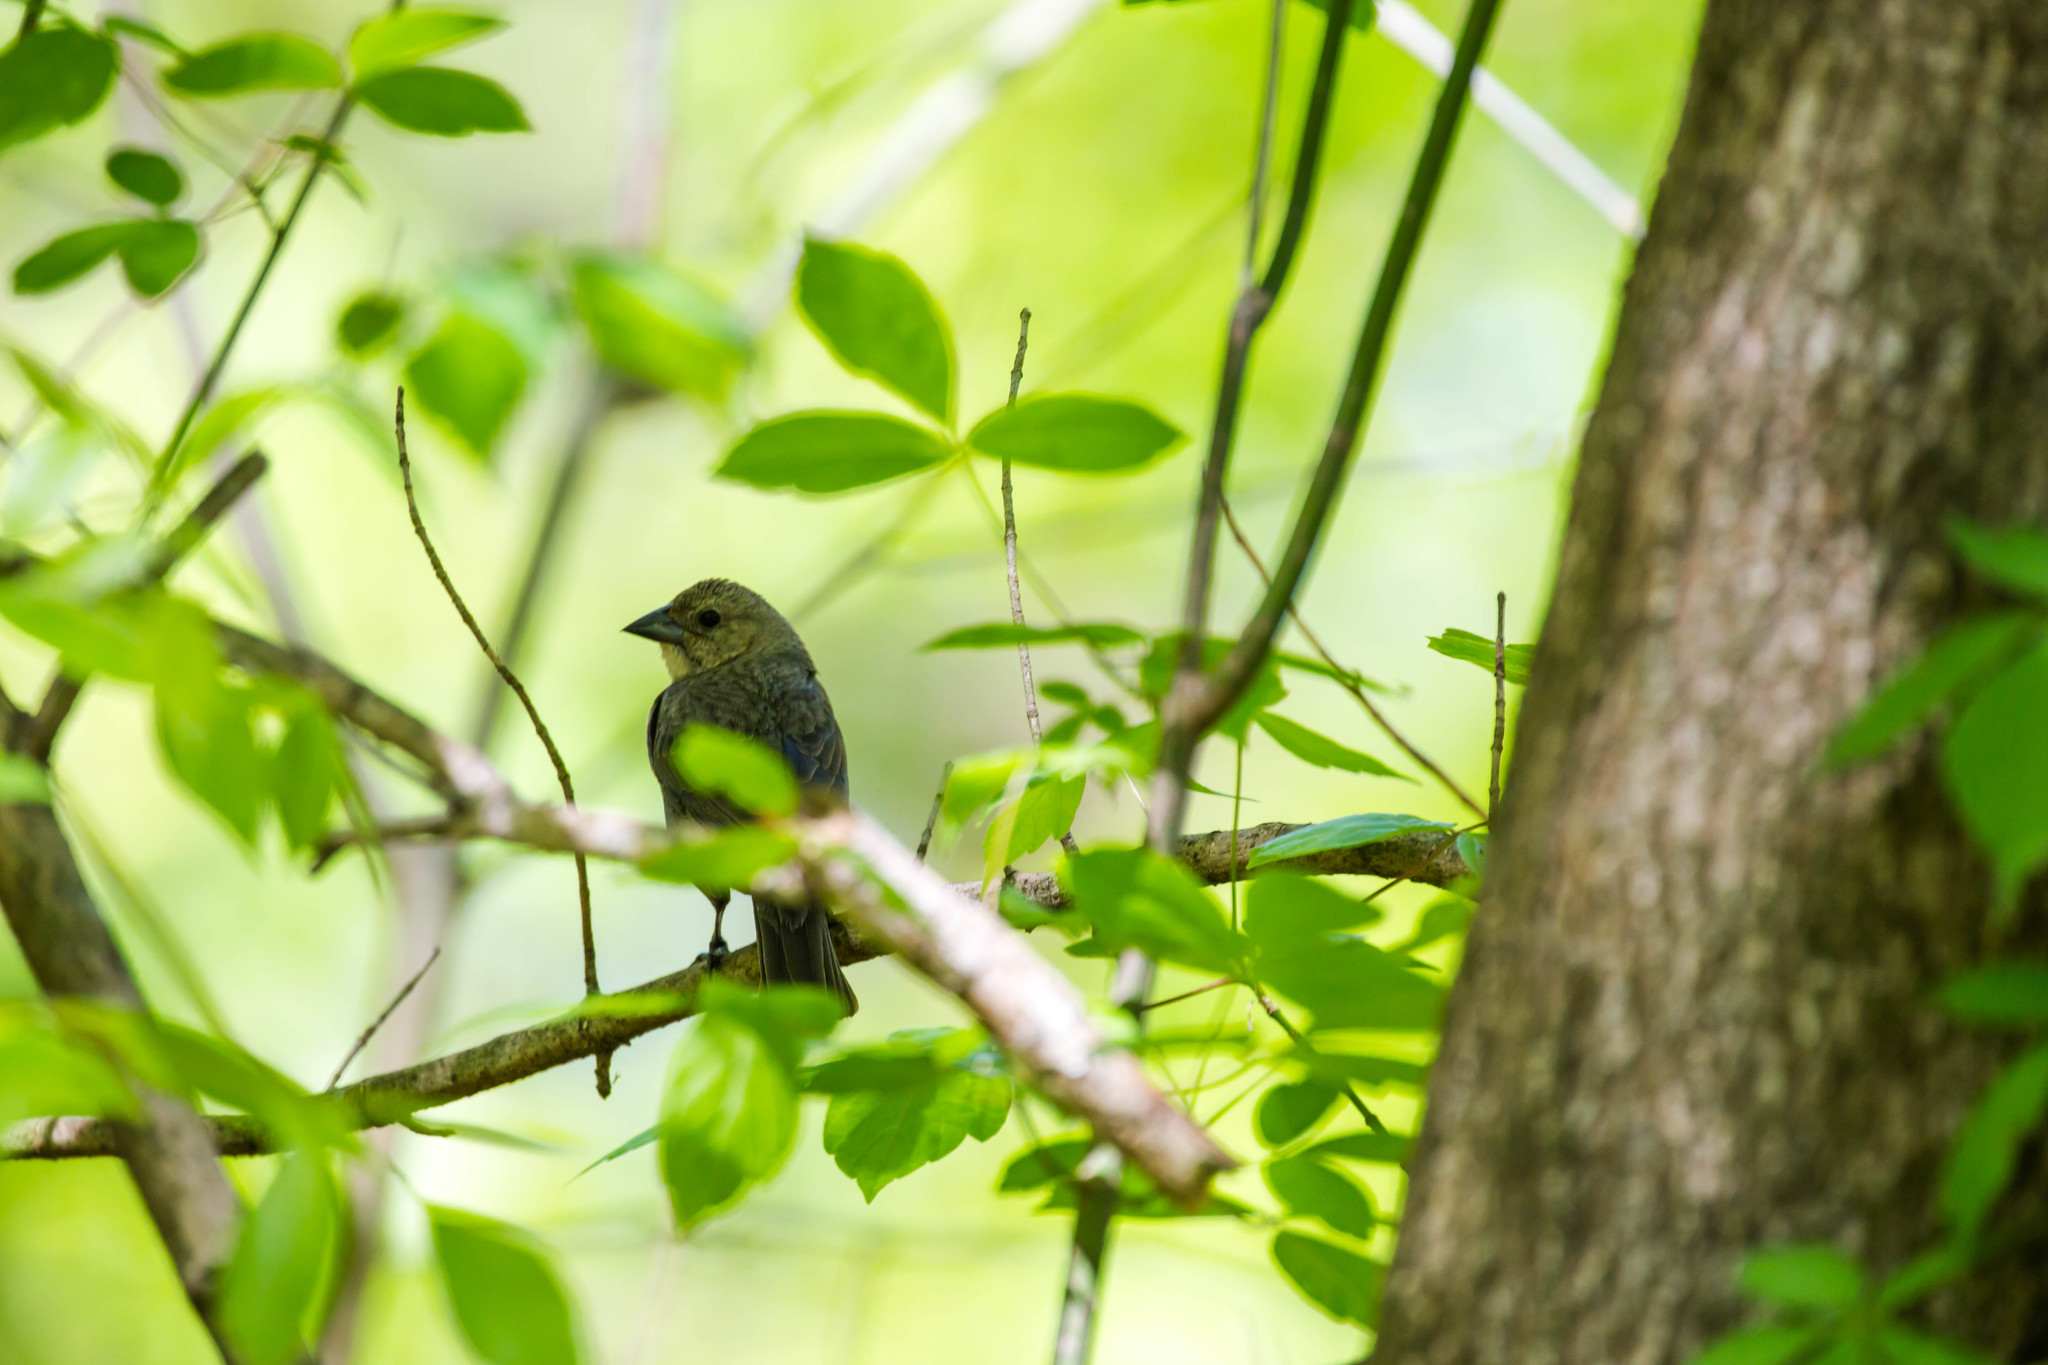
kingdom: Animalia
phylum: Chordata
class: Aves
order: Passeriformes
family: Icteridae
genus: Molothrus
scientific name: Molothrus ater
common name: Brown-headed cowbird
